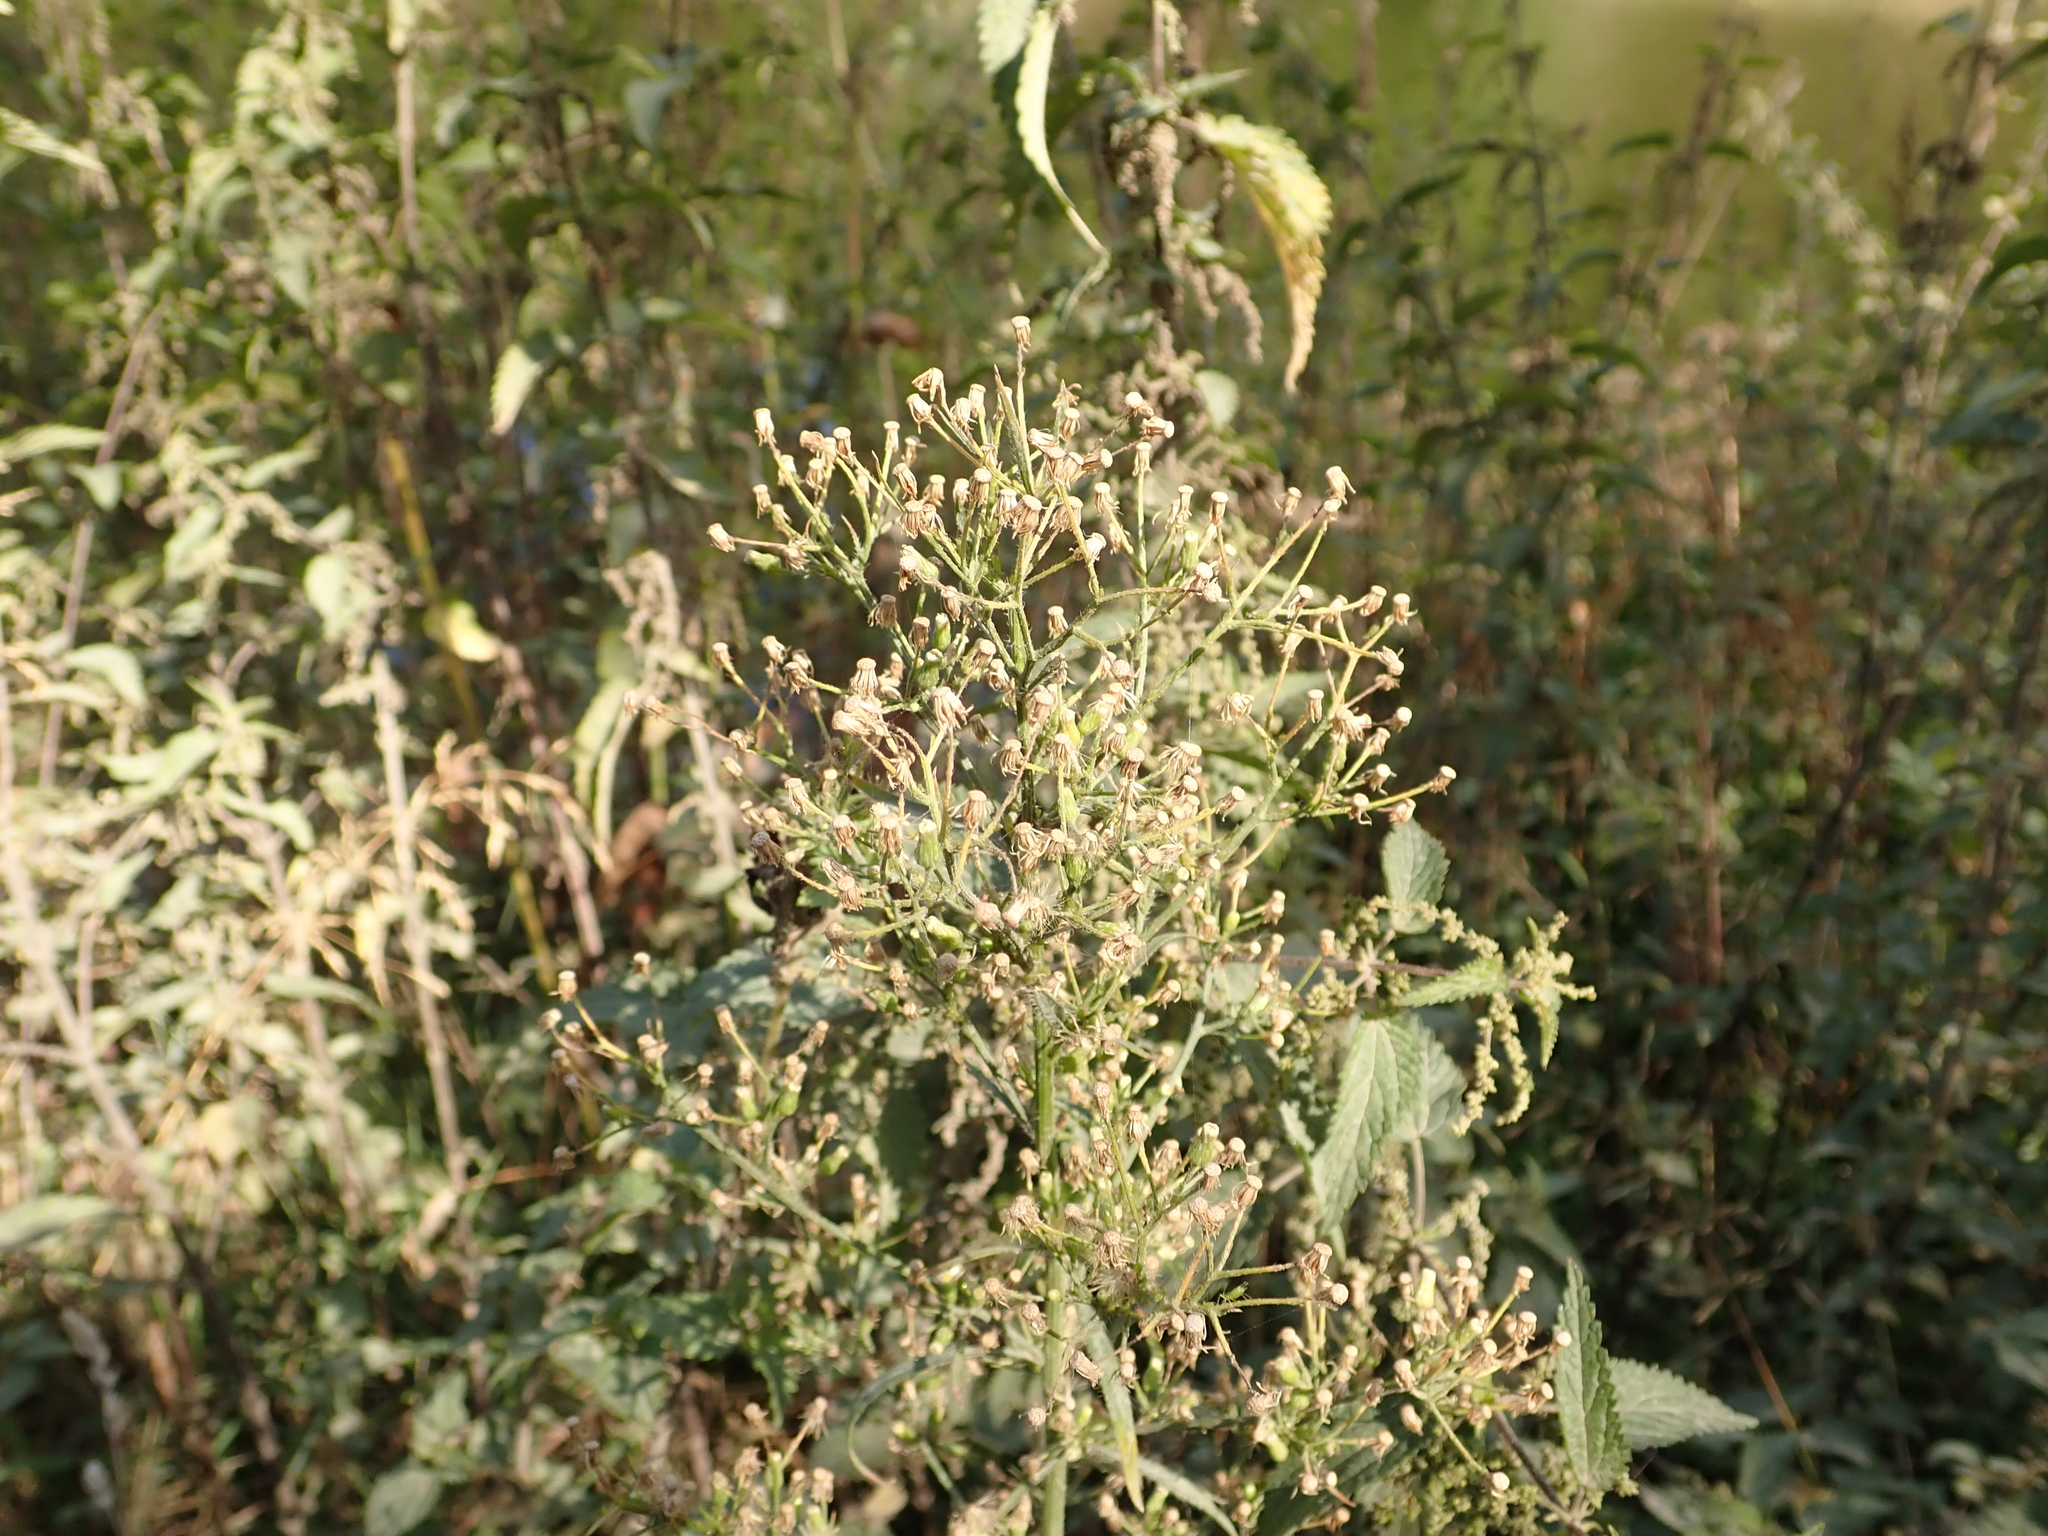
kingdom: Plantae
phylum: Tracheophyta
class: Magnoliopsida
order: Asterales
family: Asteraceae
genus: Erigeron
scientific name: Erigeron canadensis
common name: Canadian fleabane
